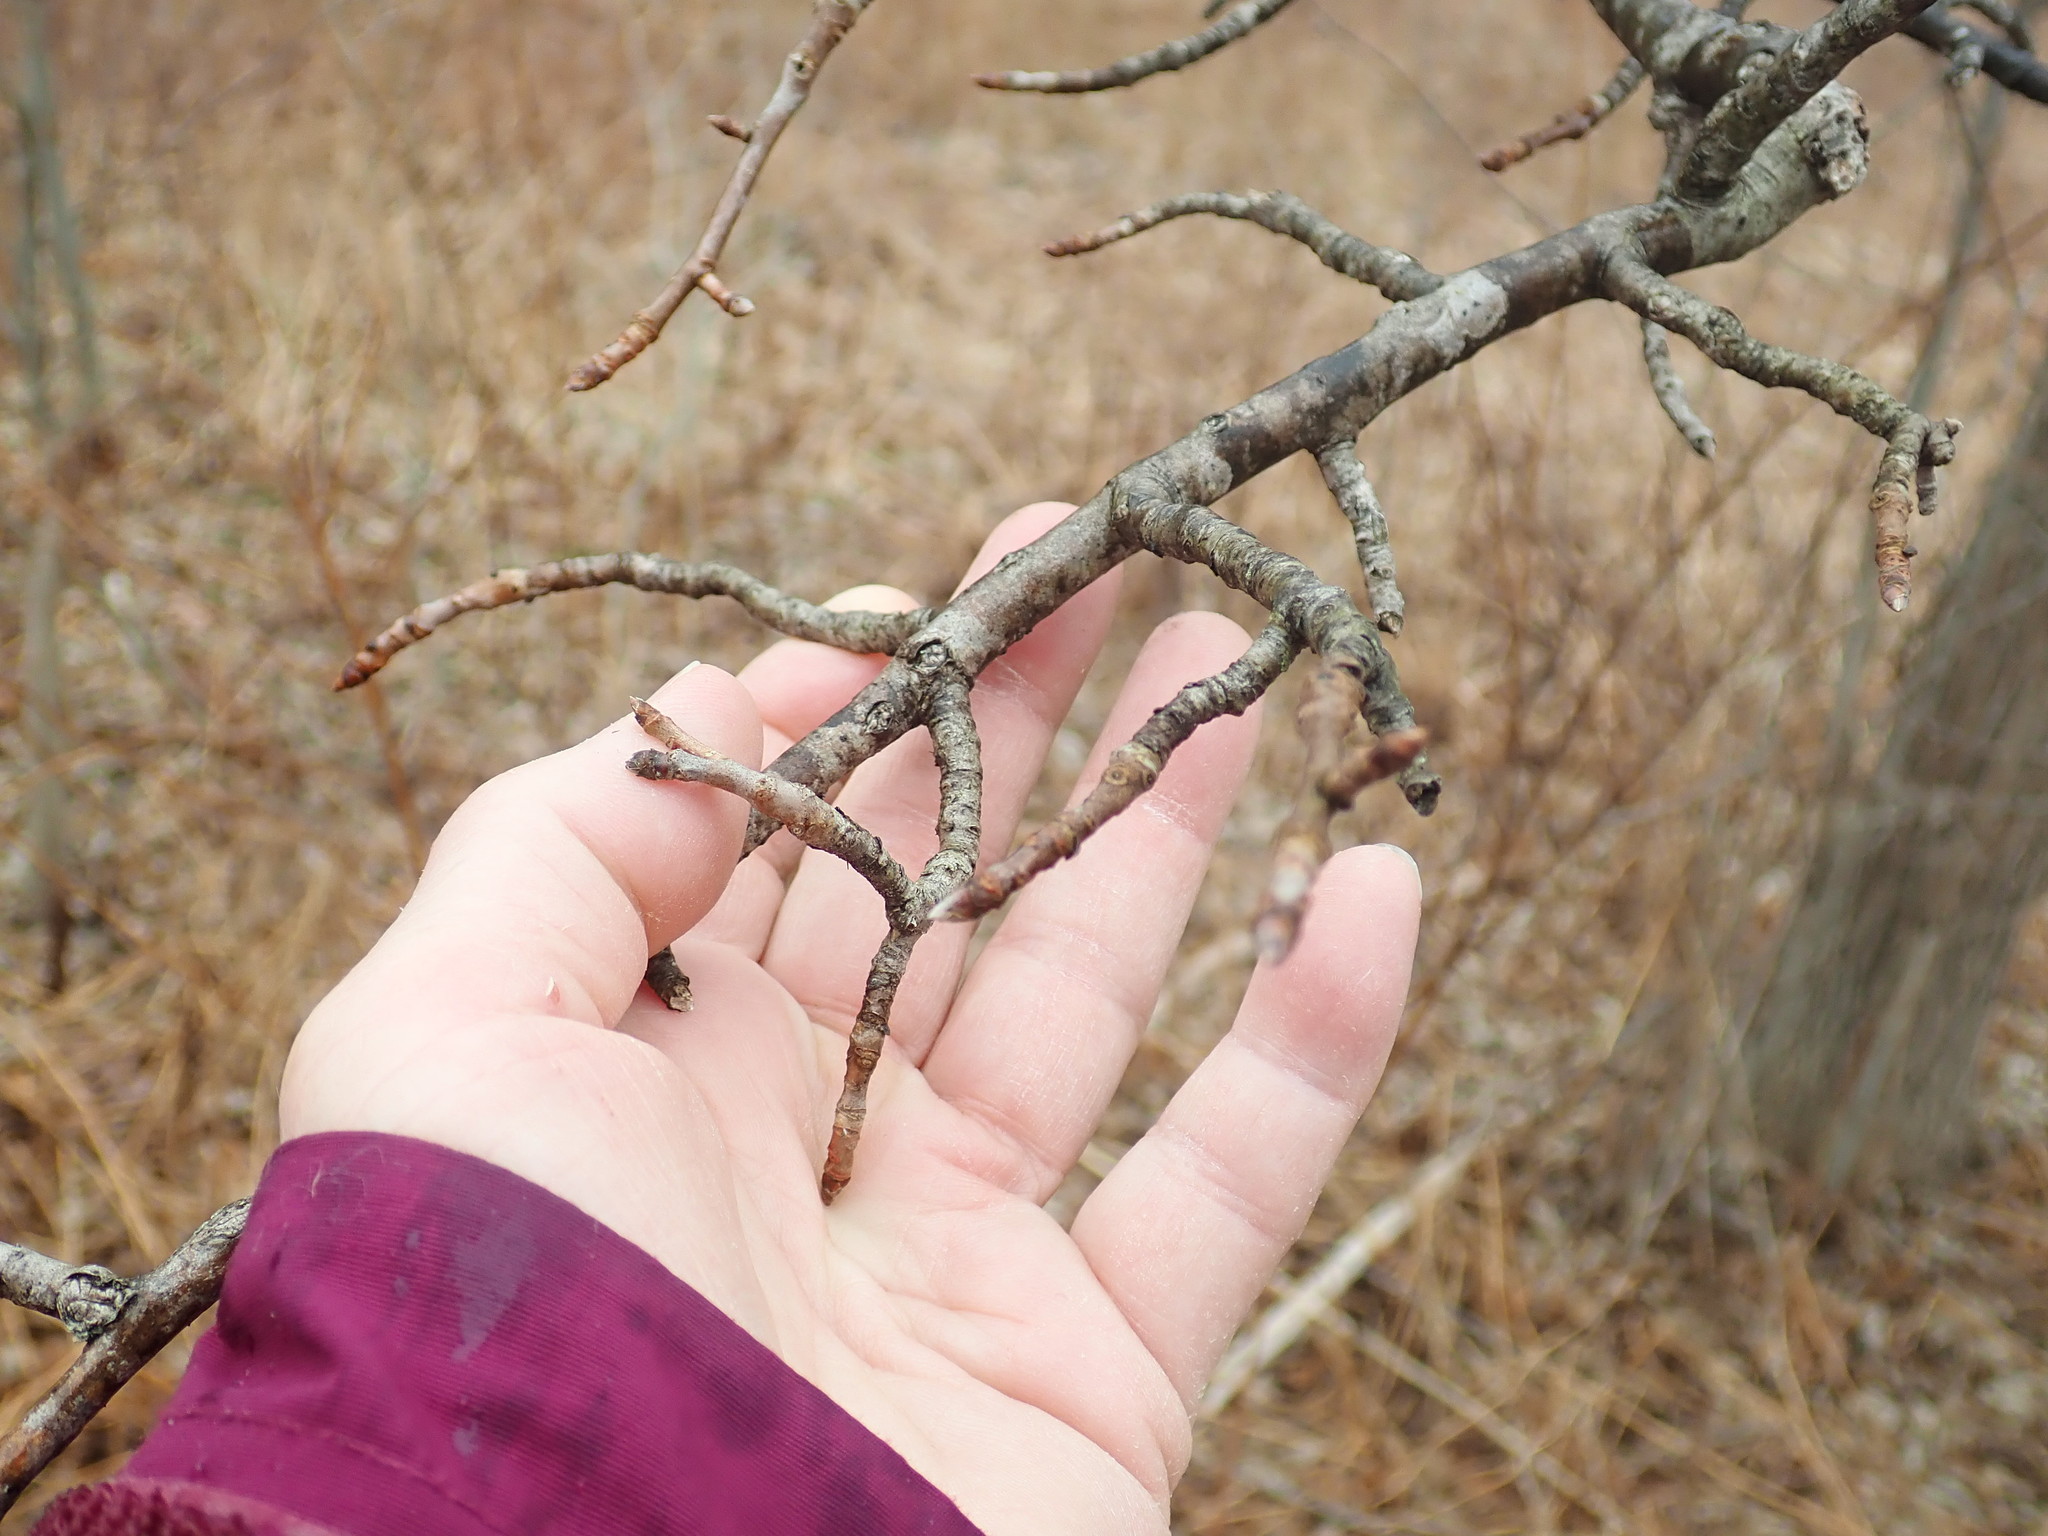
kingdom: Plantae
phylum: Tracheophyta
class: Magnoliopsida
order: Cornales
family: Nyssaceae
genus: Nyssa
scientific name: Nyssa sylvatica
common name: Black tupelo
